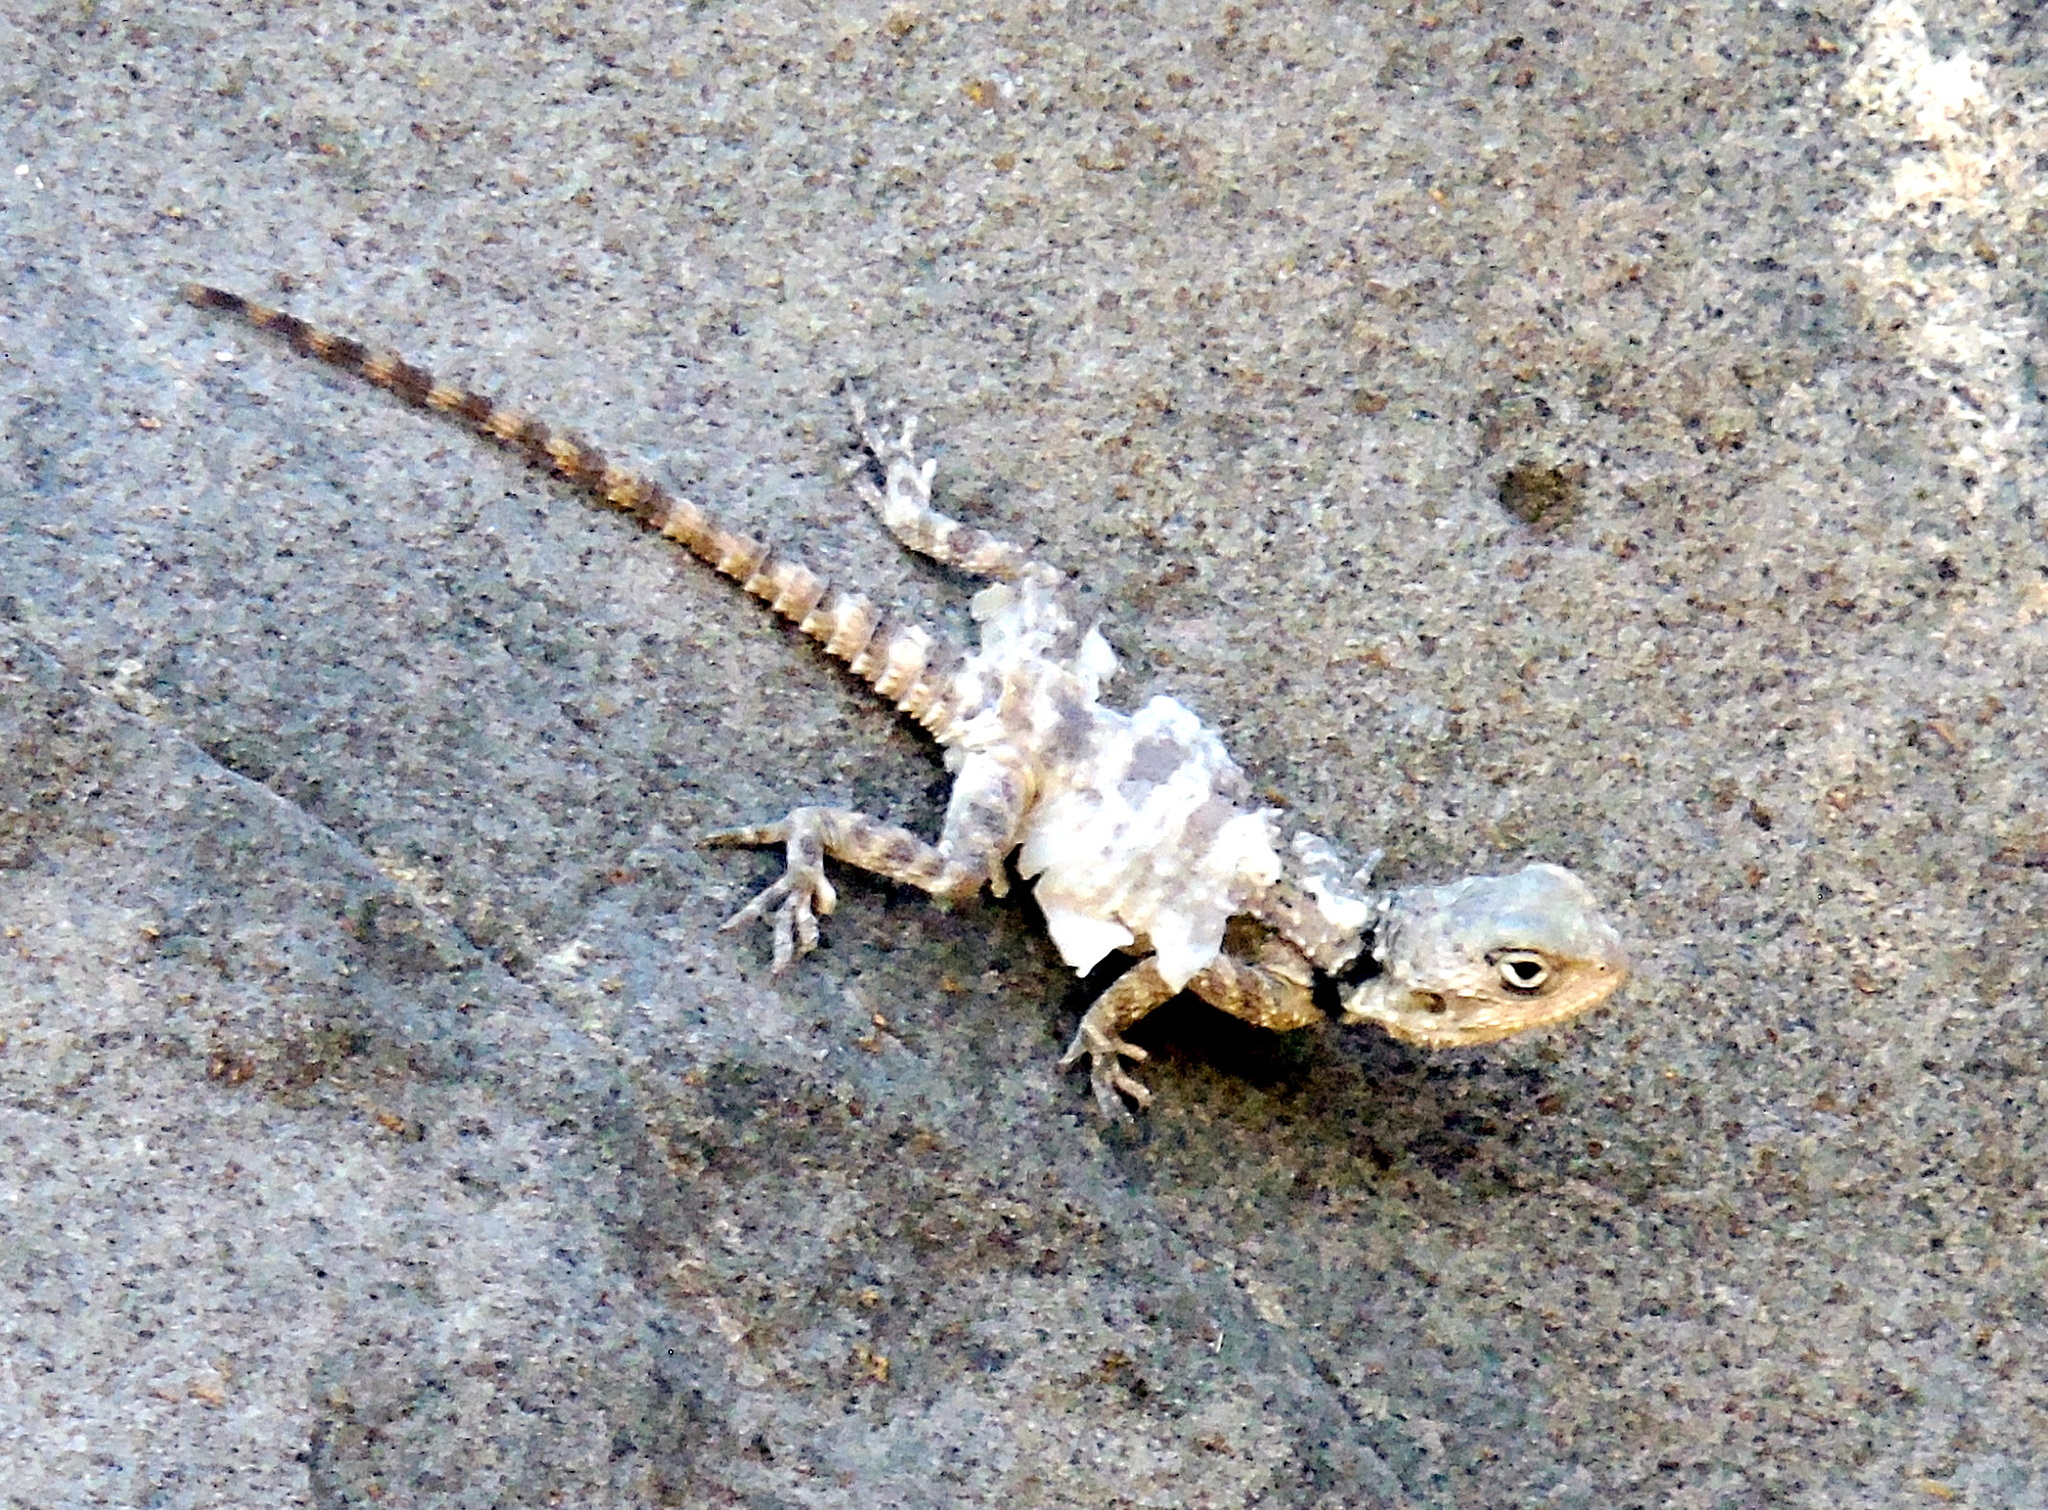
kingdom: Animalia
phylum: Chordata
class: Squamata
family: Agamidae
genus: Stellagama
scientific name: Stellagama stellio
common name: Starred agama
